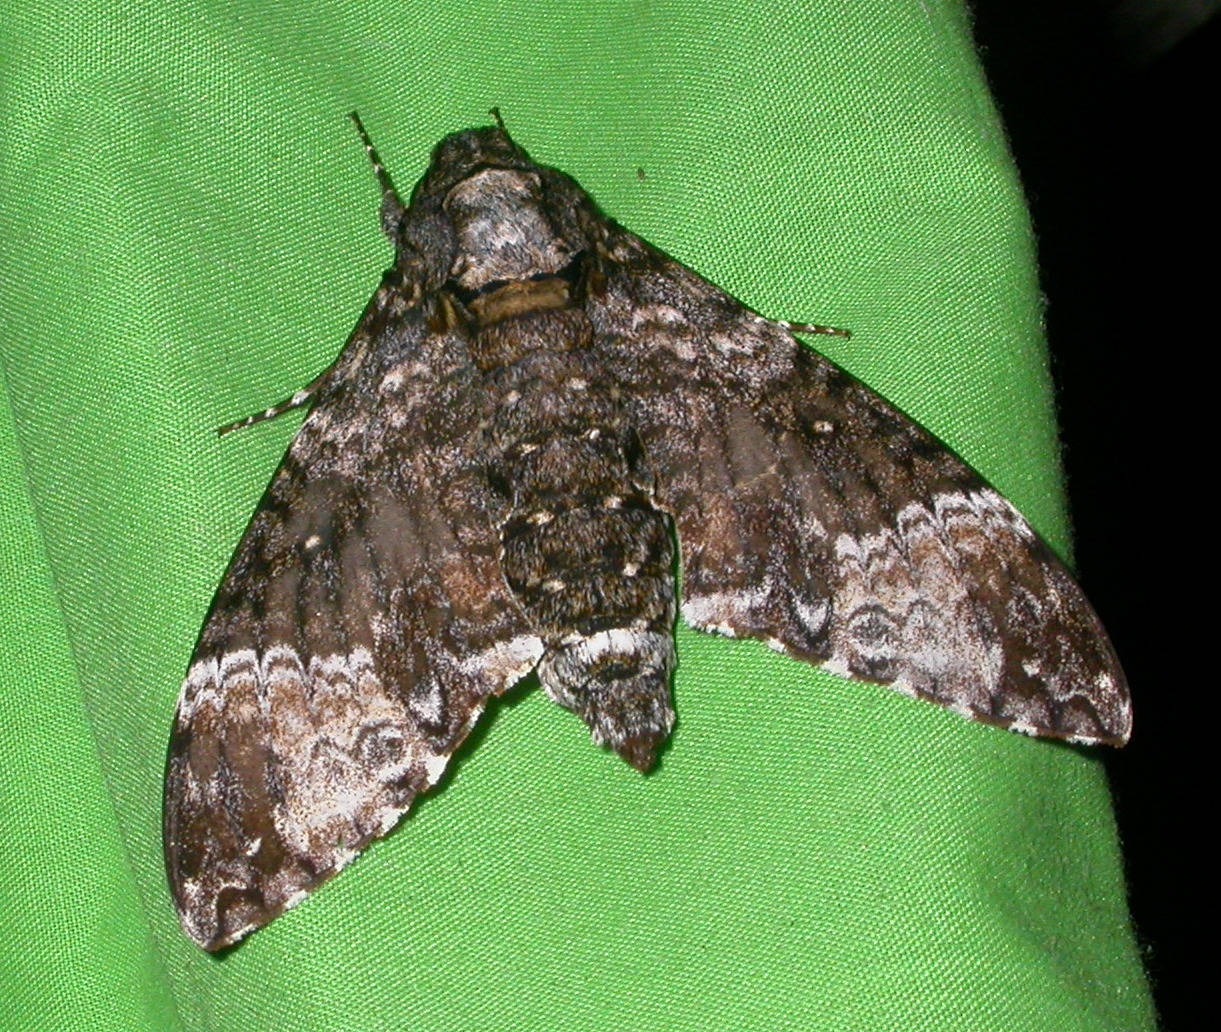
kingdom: Animalia
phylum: Arthropoda
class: Insecta
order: Lepidoptera
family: Sphingidae
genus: Coelonia
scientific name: Coelonia solani
